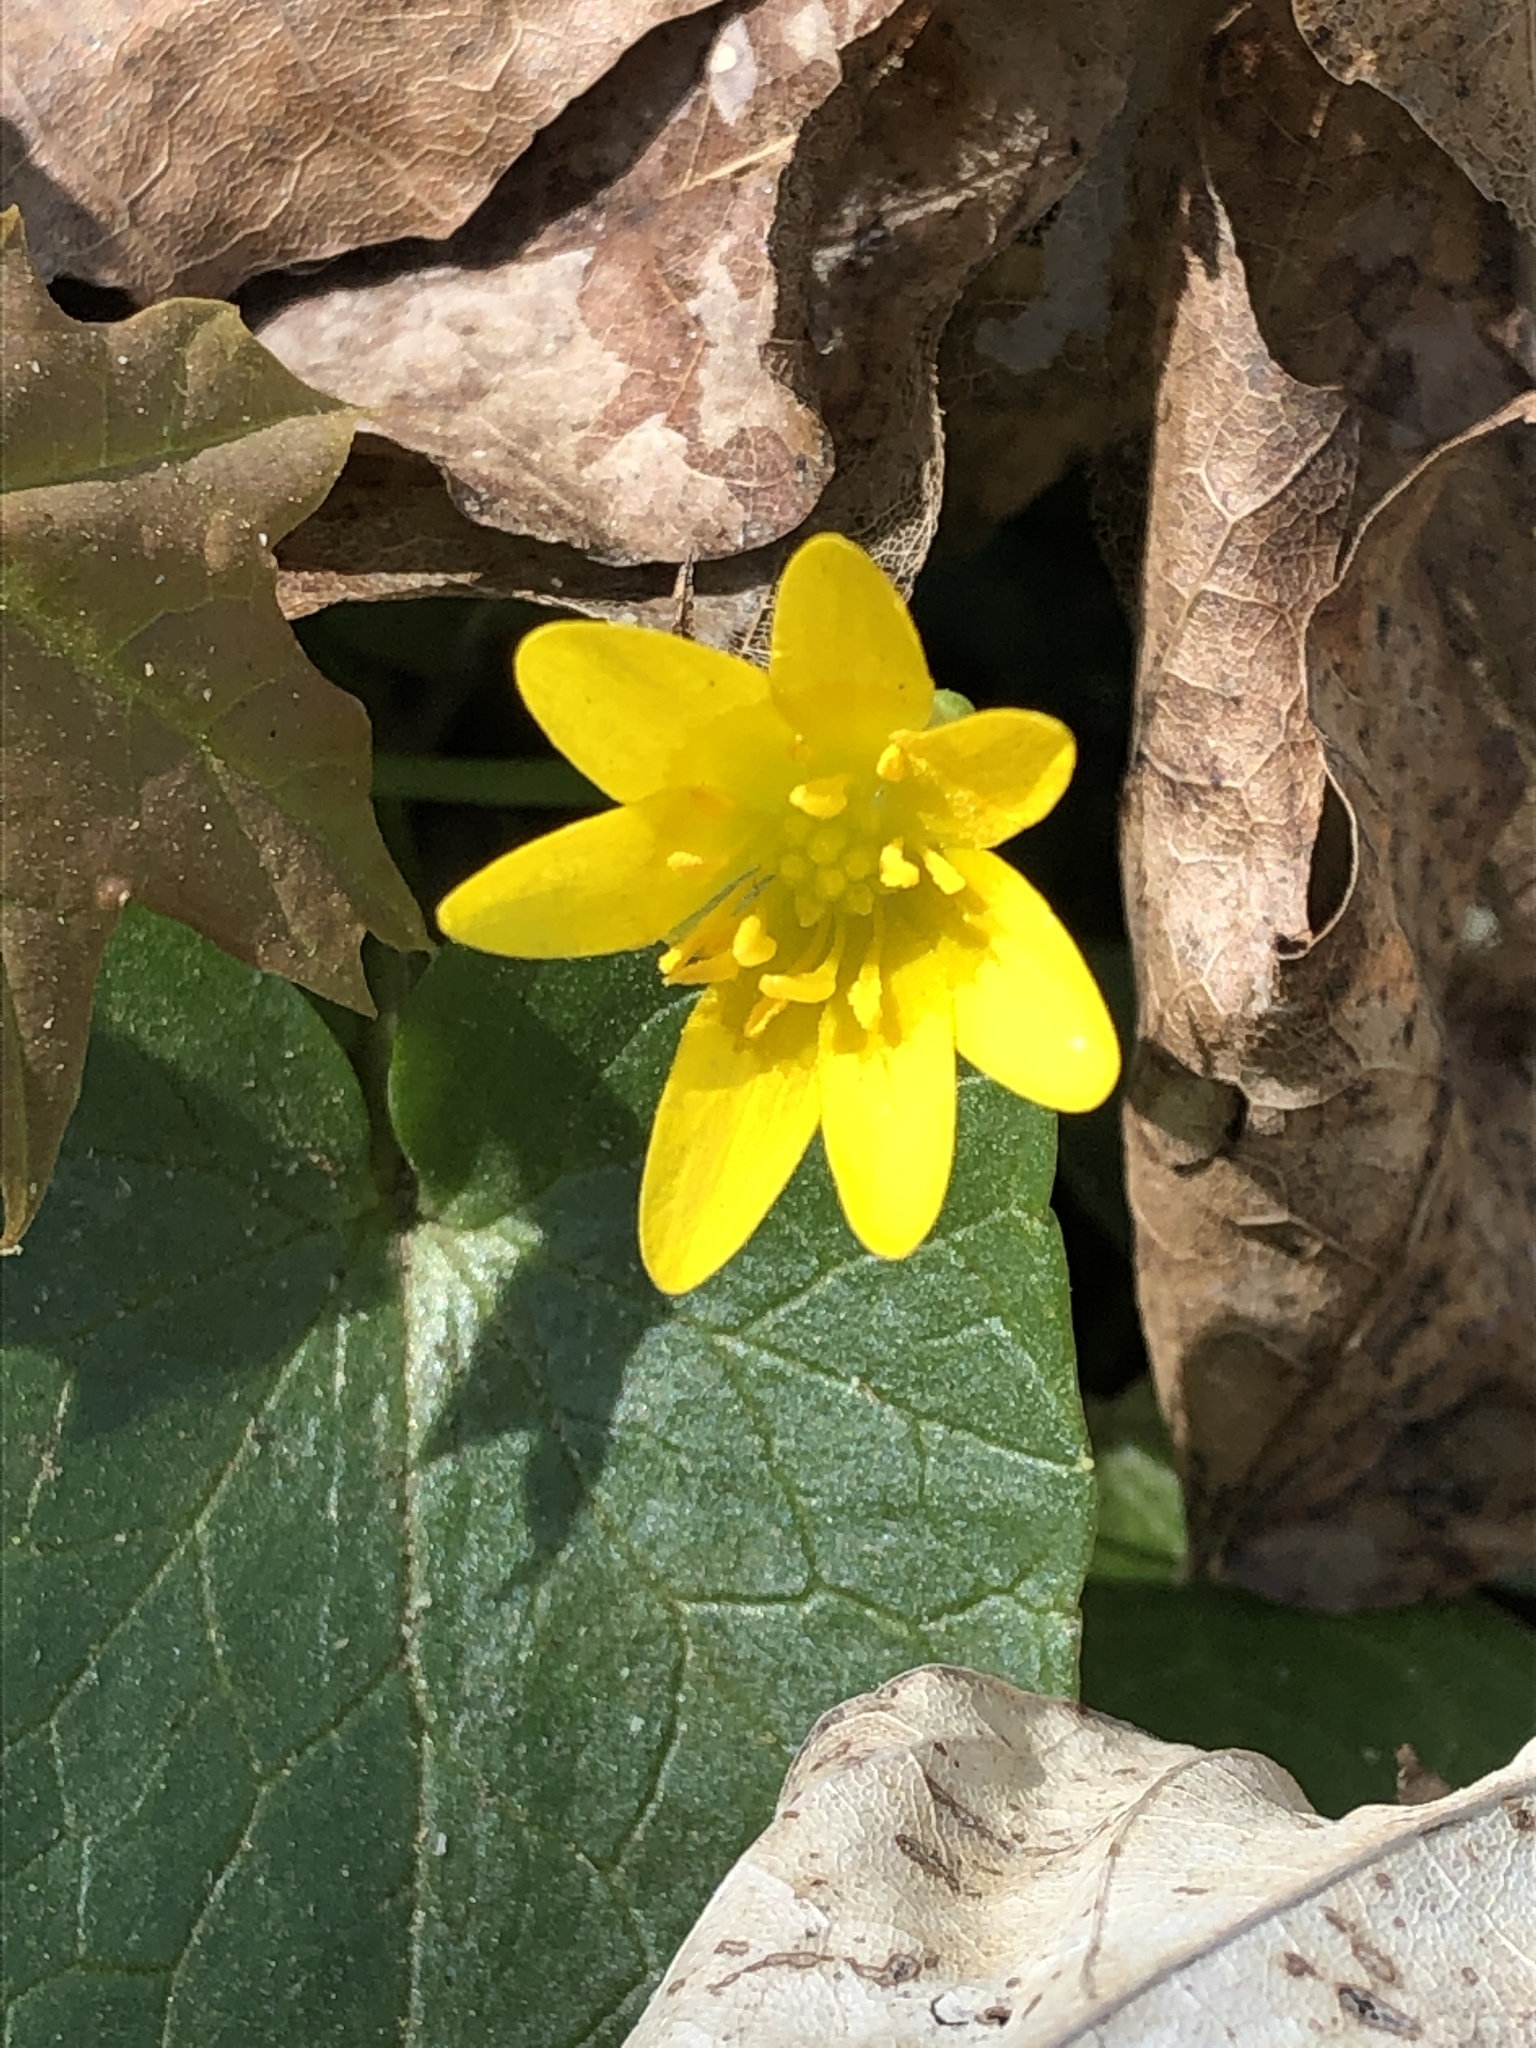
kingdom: Plantae
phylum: Tracheophyta
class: Magnoliopsida
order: Ranunculales
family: Ranunculaceae
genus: Ficaria
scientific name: Ficaria verna
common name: Lesser celandine
